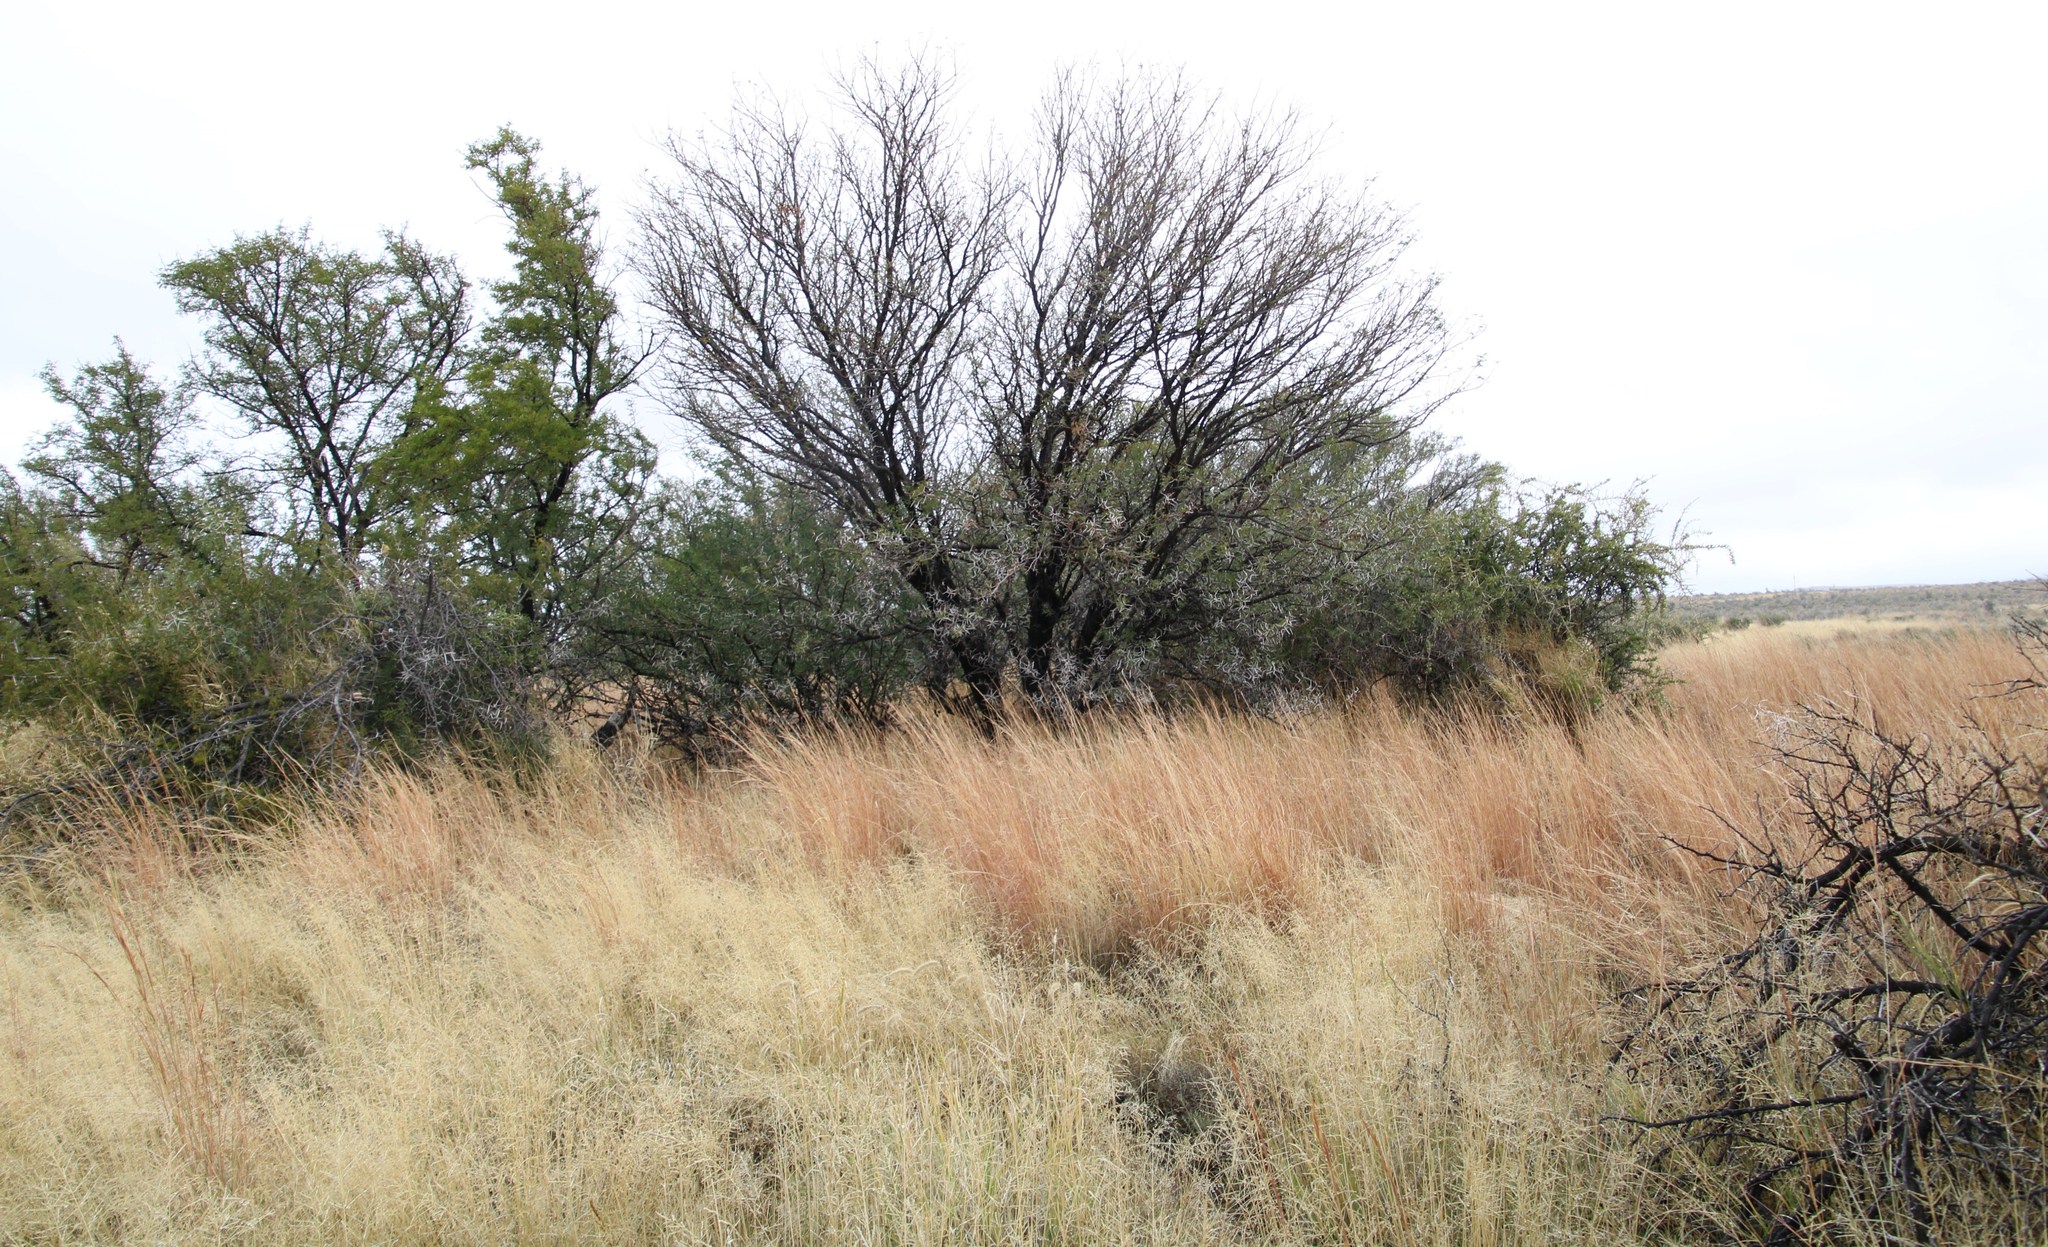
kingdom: Plantae
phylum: Tracheophyta
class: Magnoliopsida
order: Fabales
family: Fabaceae
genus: Vachellia
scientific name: Vachellia karroo
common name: Sweet thorn
